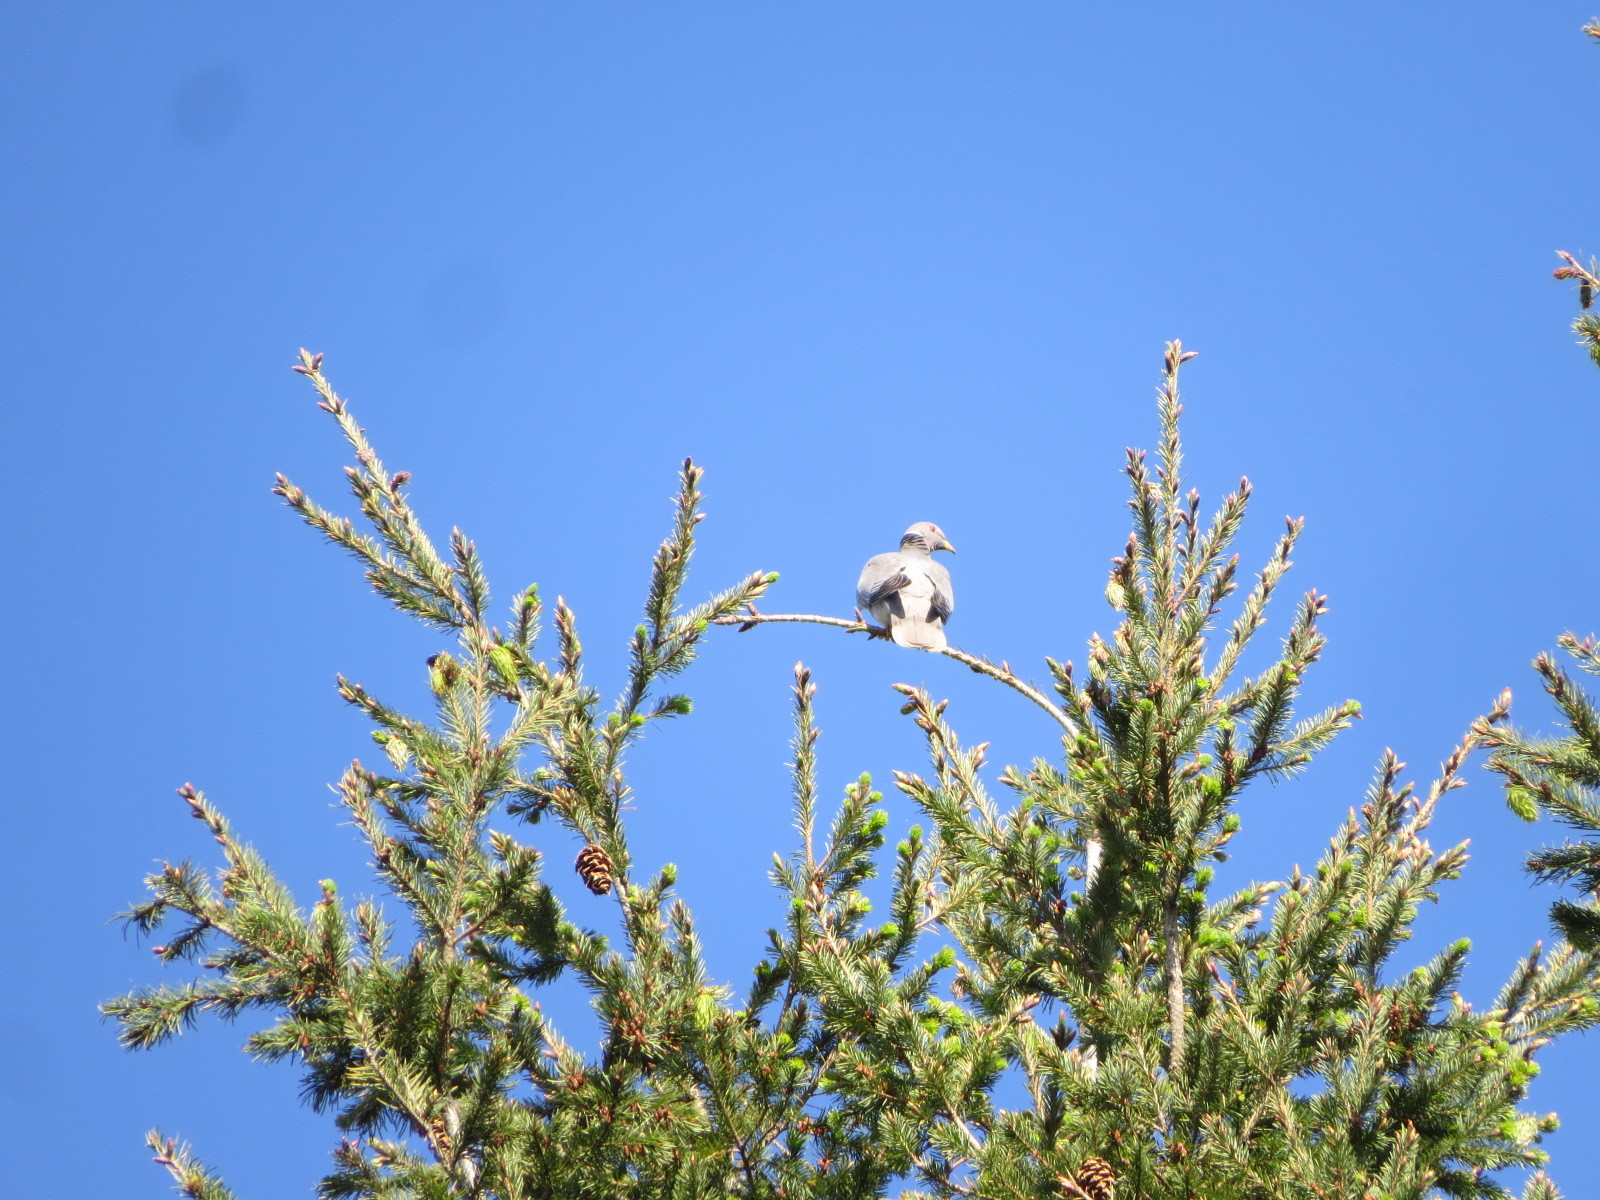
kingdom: Animalia
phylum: Chordata
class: Aves
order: Columbiformes
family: Columbidae
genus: Patagioenas
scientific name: Patagioenas fasciata
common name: Band-tailed pigeon
